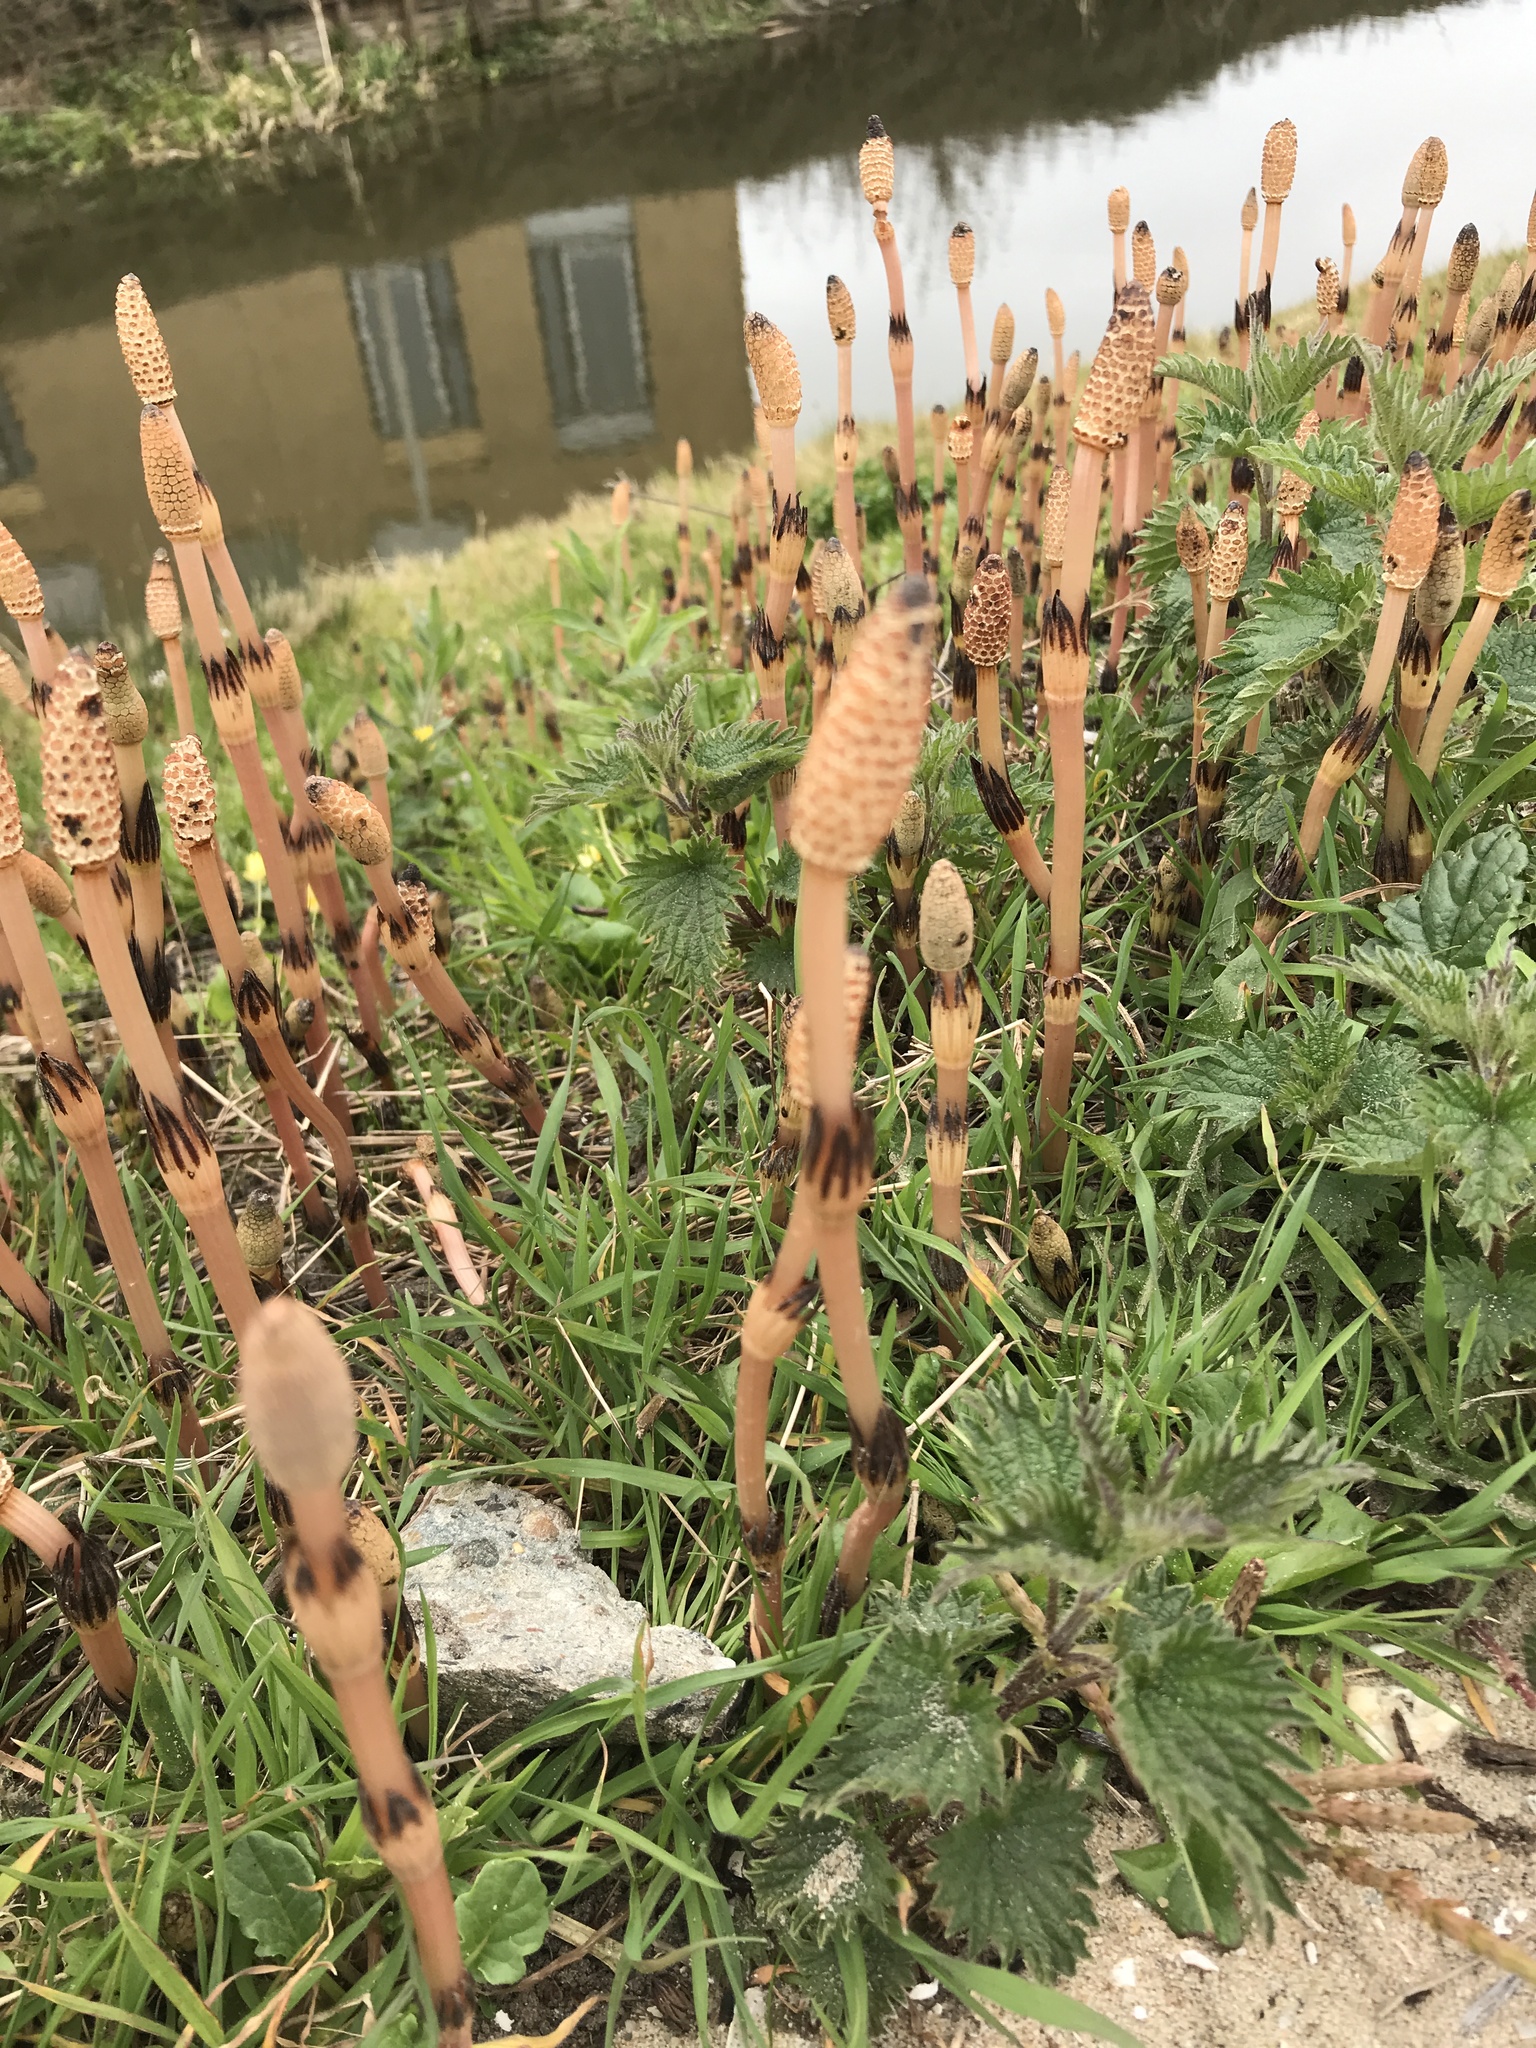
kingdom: Plantae
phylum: Tracheophyta
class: Polypodiopsida
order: Equisetales
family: Equisetaceae
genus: Equisetum
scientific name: Equisetum arvense
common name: Field horsetail
